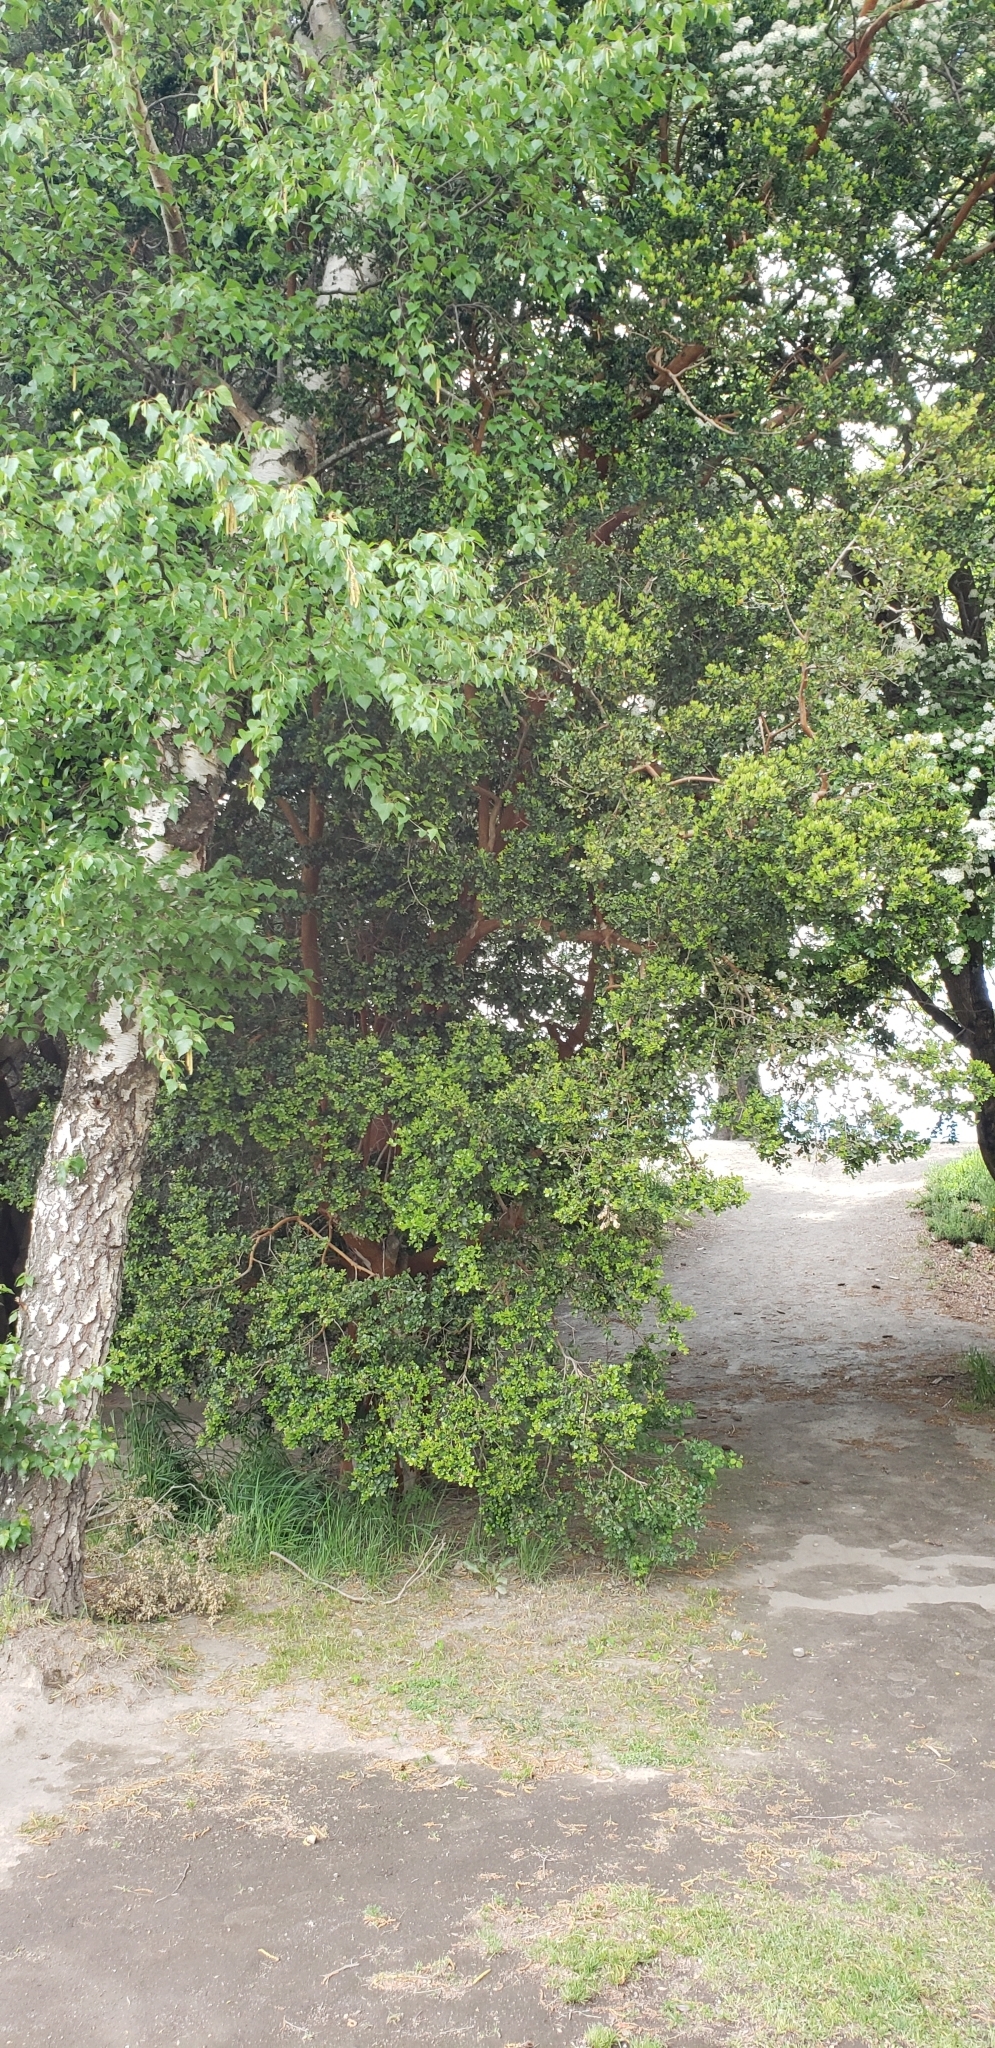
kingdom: Plantae
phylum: Tracheophyta
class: Magnoliopsida
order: Myrtales
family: Myrtaceae
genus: Luma
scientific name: Luma apiculata
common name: Chilean myrtle
